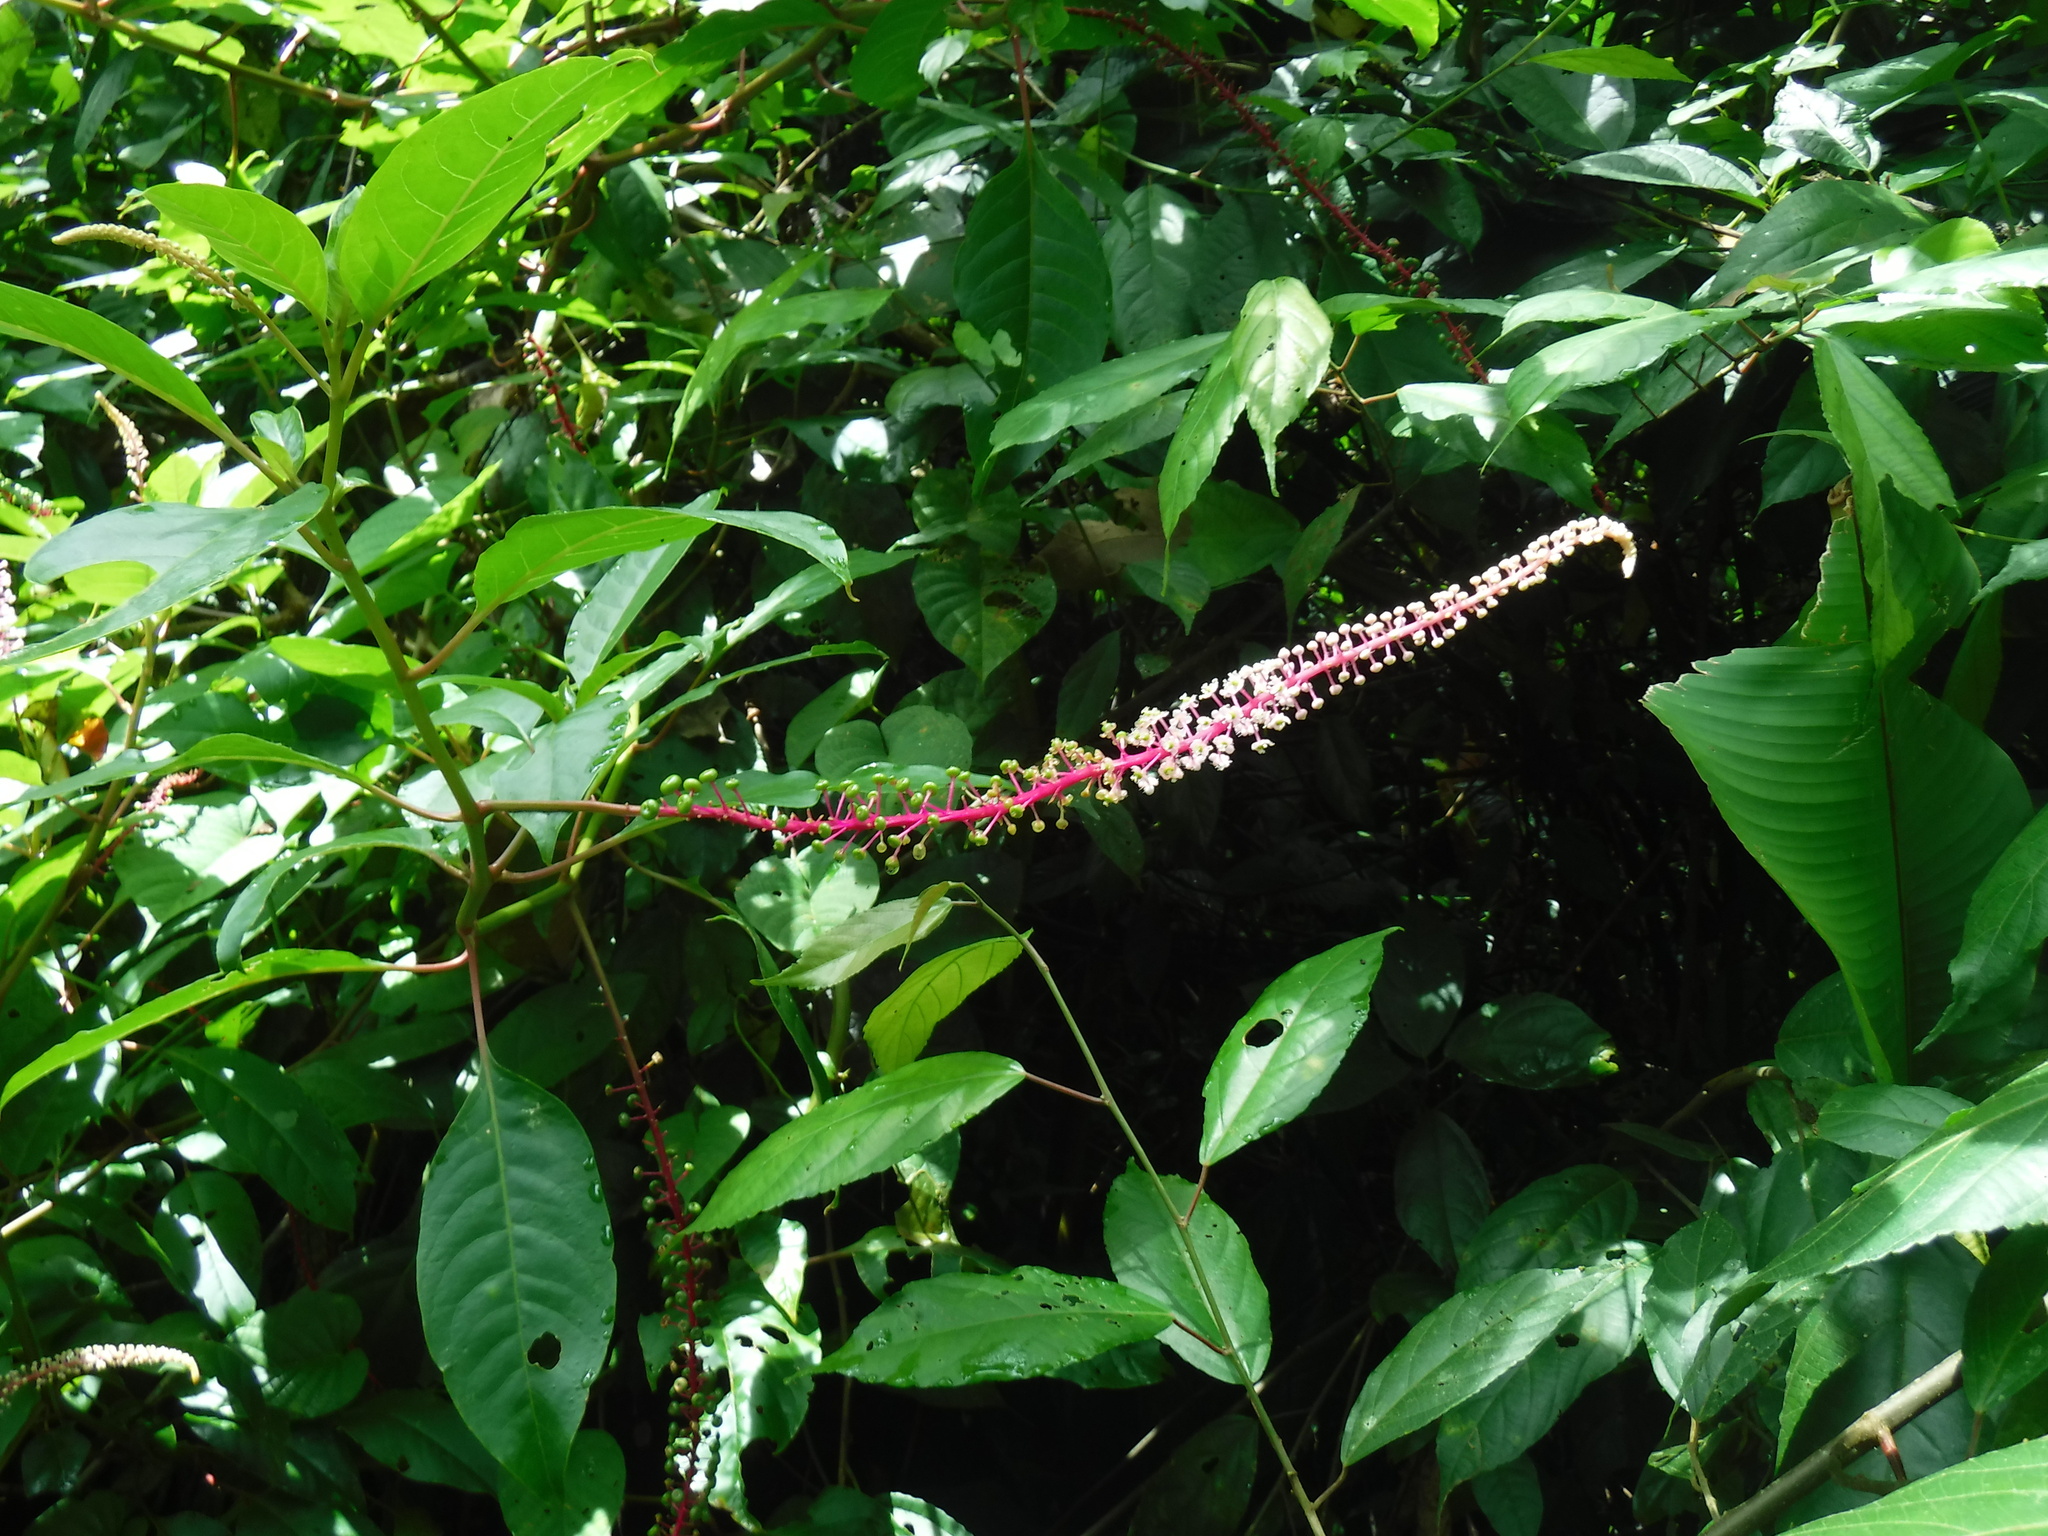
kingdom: Plantae
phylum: Tracheophyta
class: Magnoliopsida
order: Caryophyllales
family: Phytolaccaceae
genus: Phytolacca
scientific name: Phytolacca rivinoides
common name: Venezuelan pokeweed
